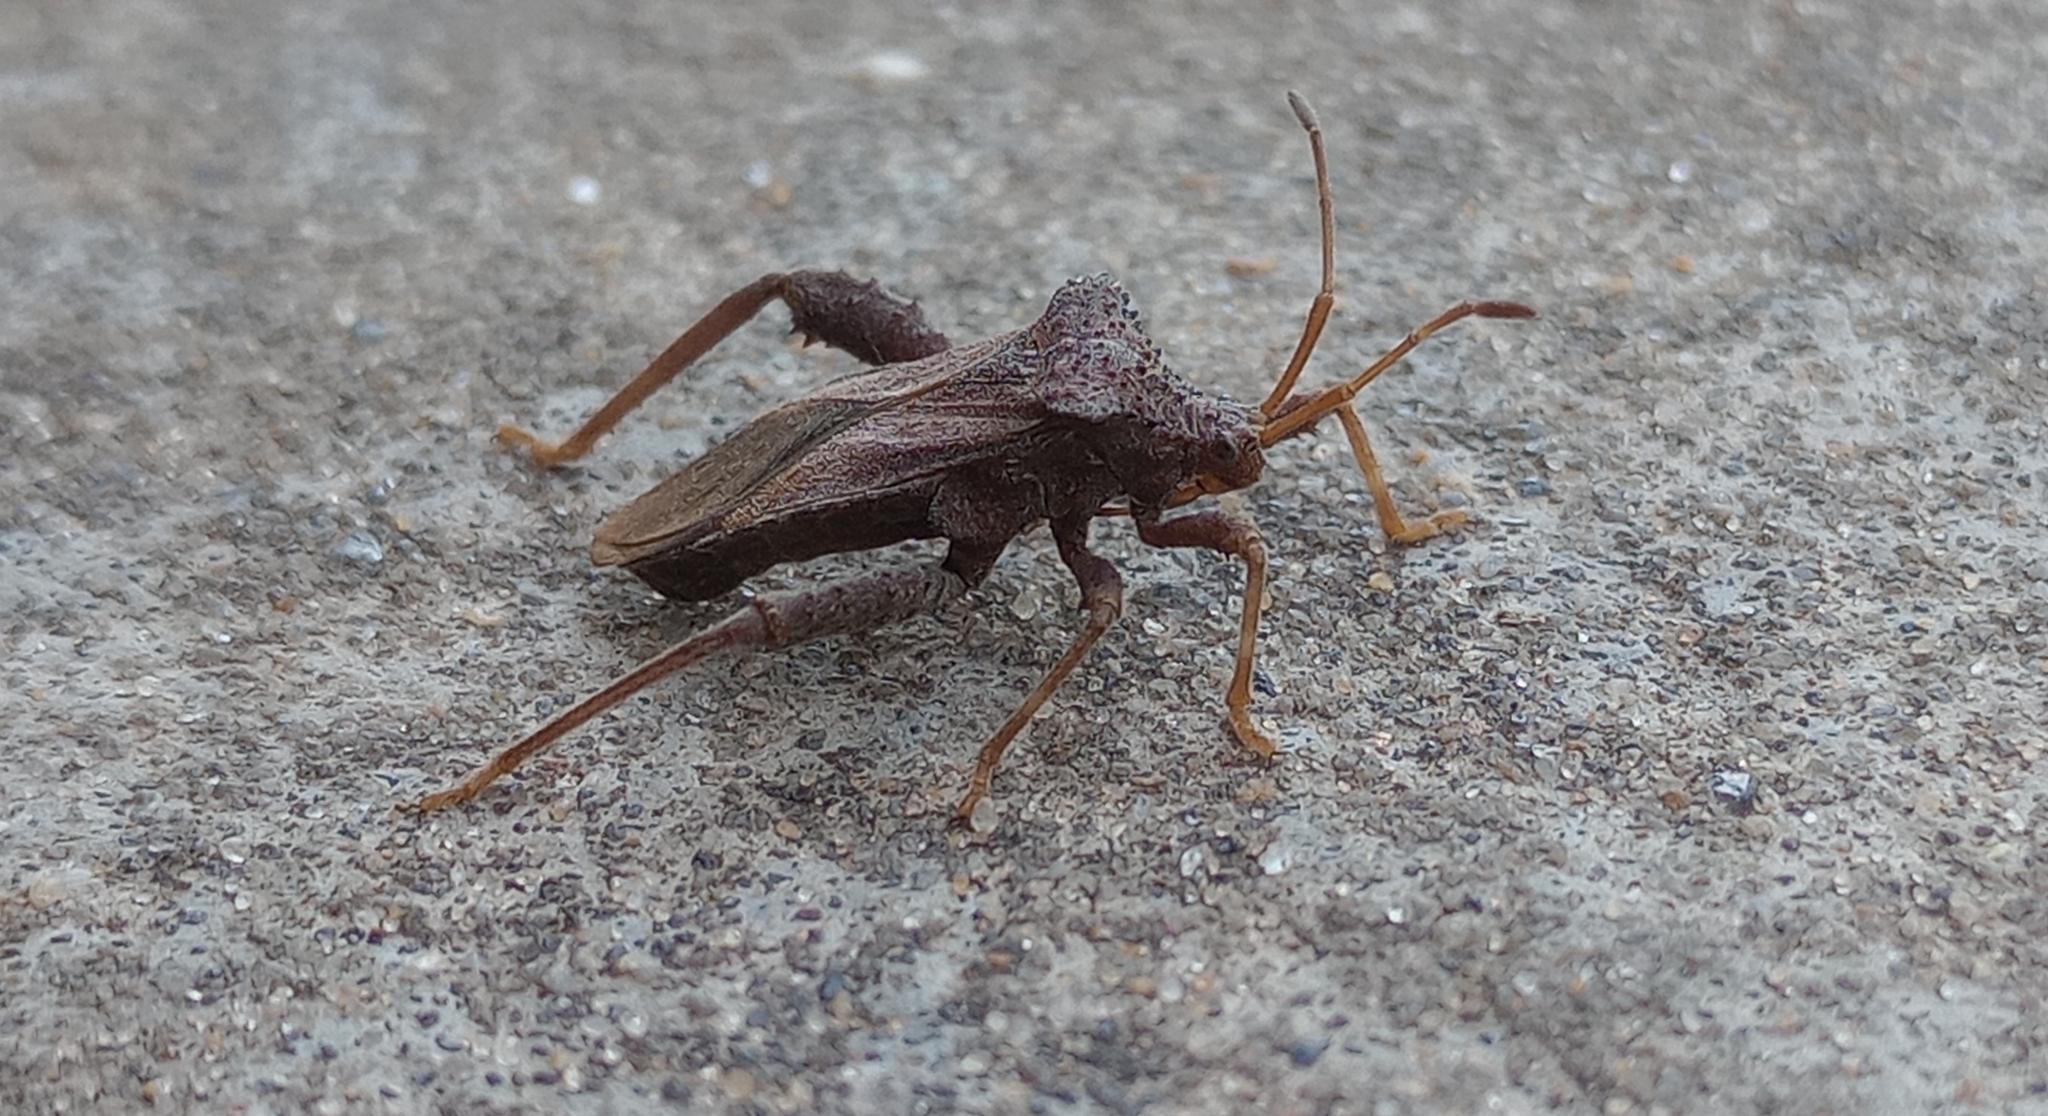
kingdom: Animalia
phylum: Arthropoda
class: Insecta
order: Hemiptera
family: Coreidae
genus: Camptischium
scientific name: Camptischium clavipes
